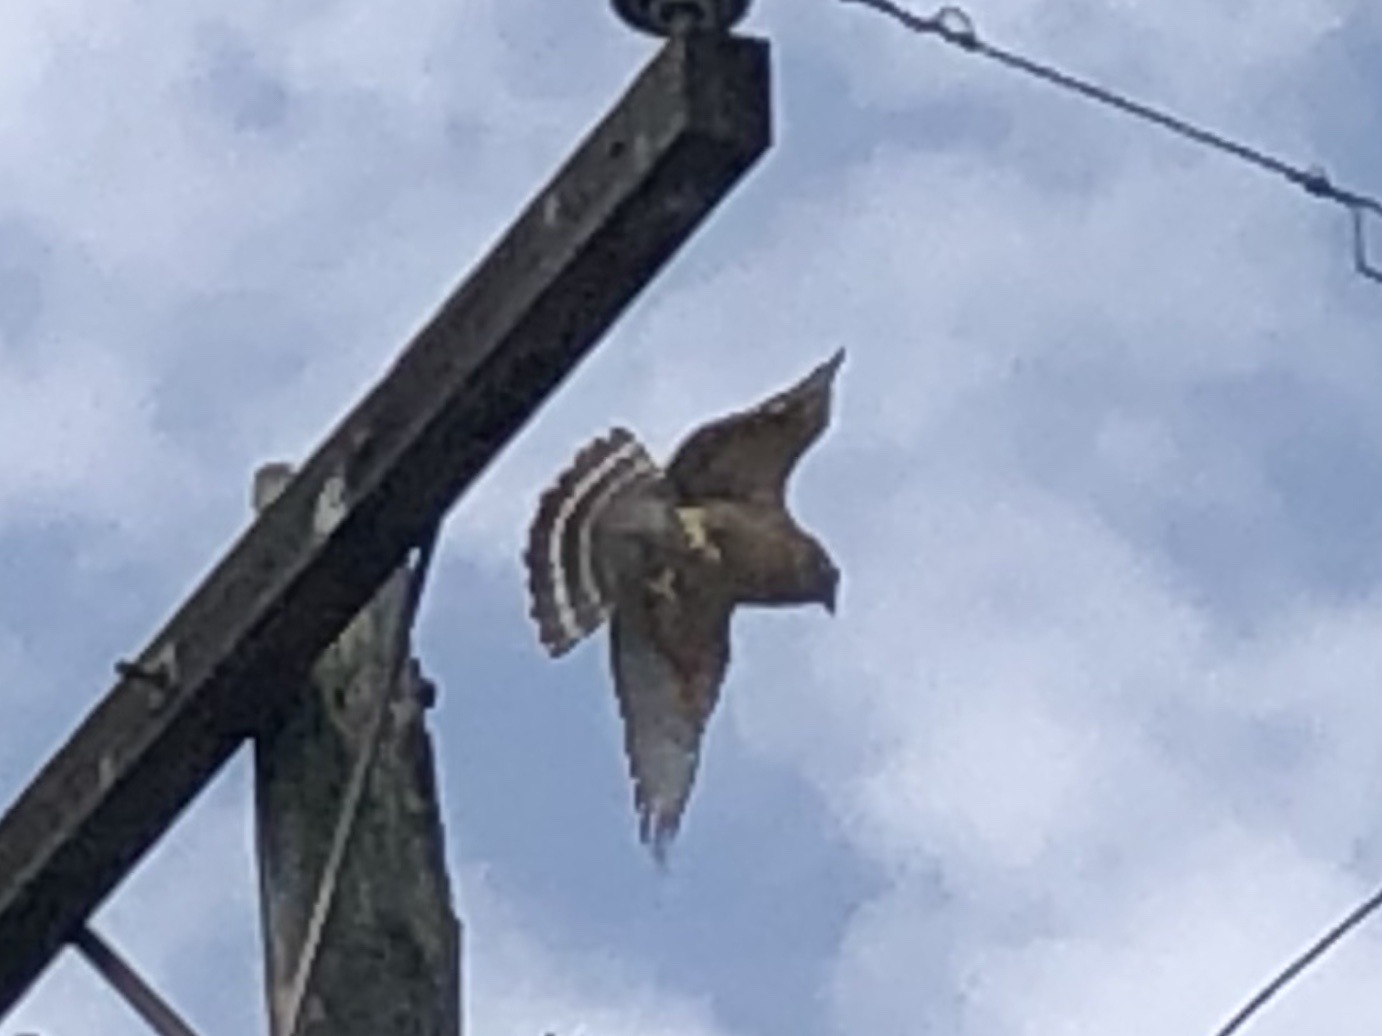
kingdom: Animalia
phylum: Chordata
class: Aves
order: Accipitriformes
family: Accipitridae
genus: Buteo
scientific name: Buteo lineatus
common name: Red-shouldered hawk
